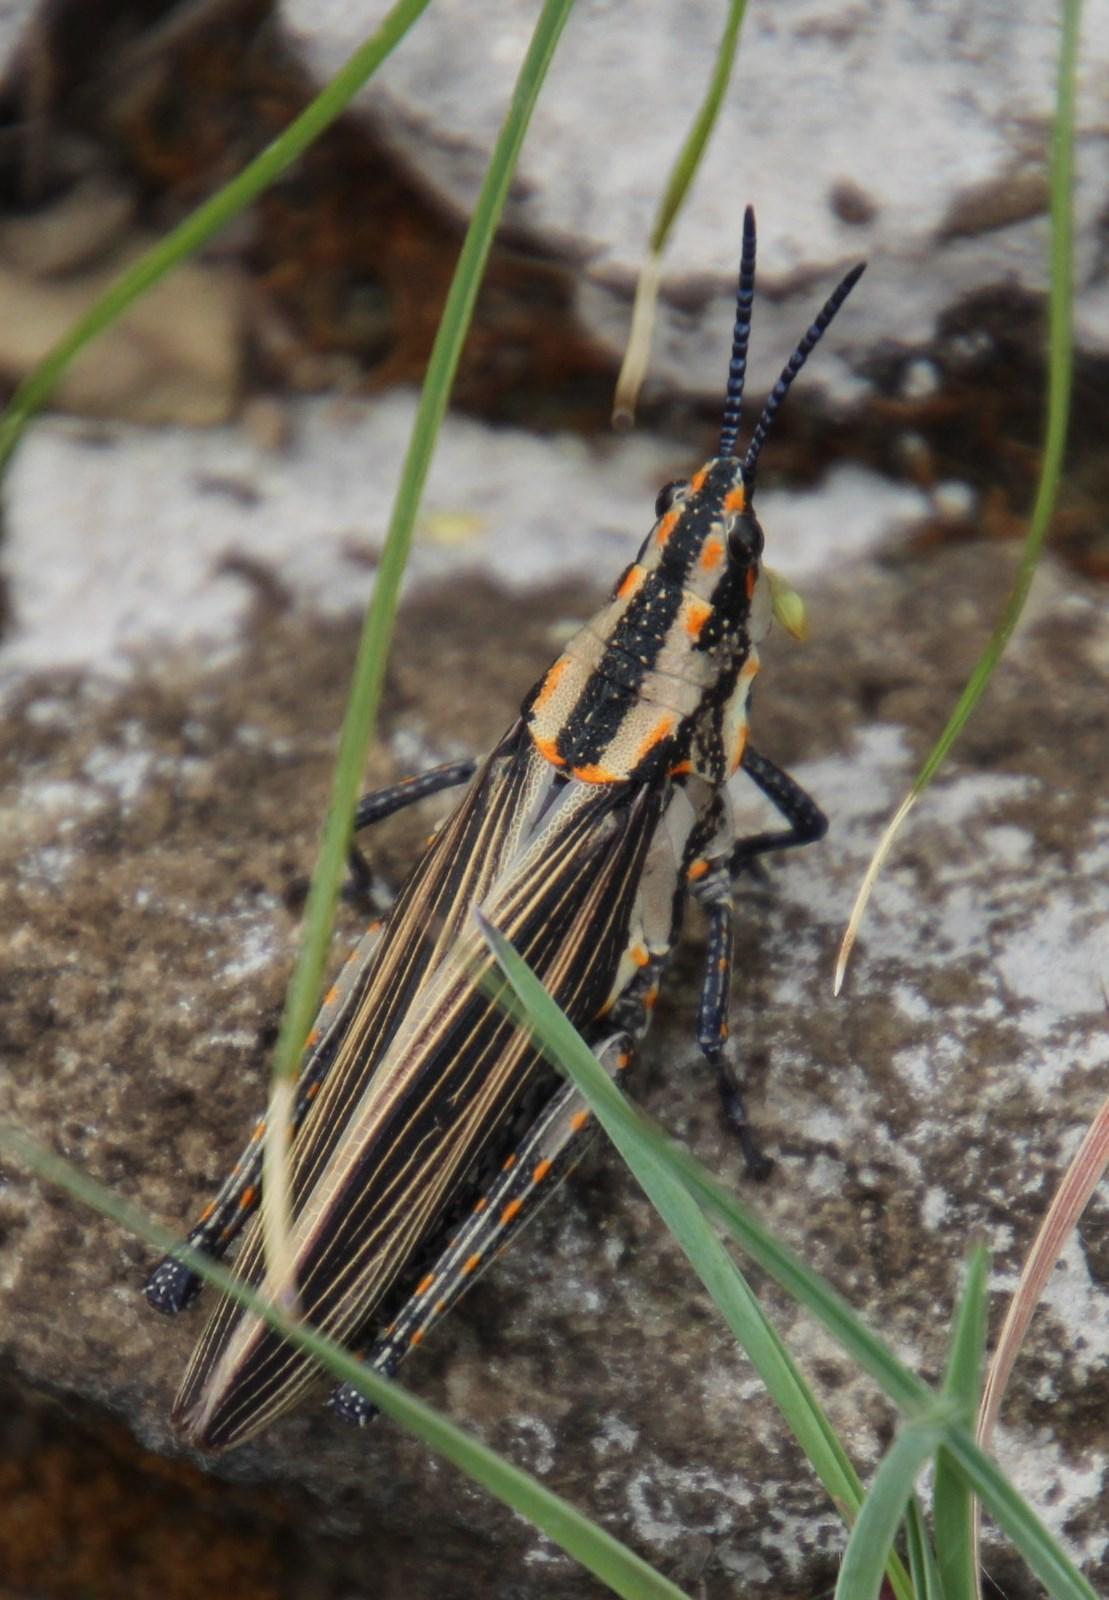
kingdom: Animalia
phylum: Arthropoda
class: Insecta
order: Orthoptera
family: Pyrgomorphidae
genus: Ochrophlebia
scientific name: Ochrophlebia cafra
